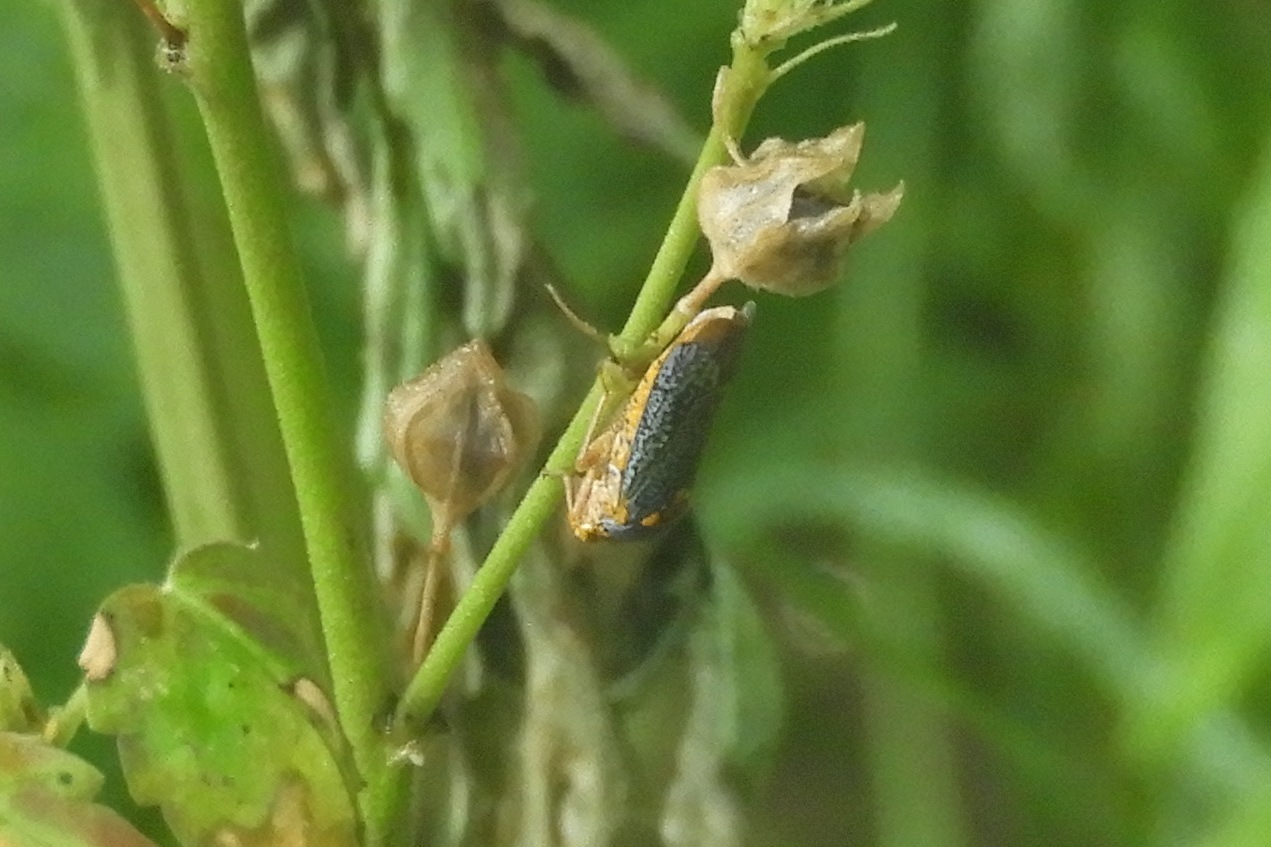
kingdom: Animalia
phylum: Arthropoda
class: Insecta
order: Hemiptera
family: Cicadellidae
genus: Oncometopia
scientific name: Oncometopia orbona
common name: Broad-headed sharpshooter
